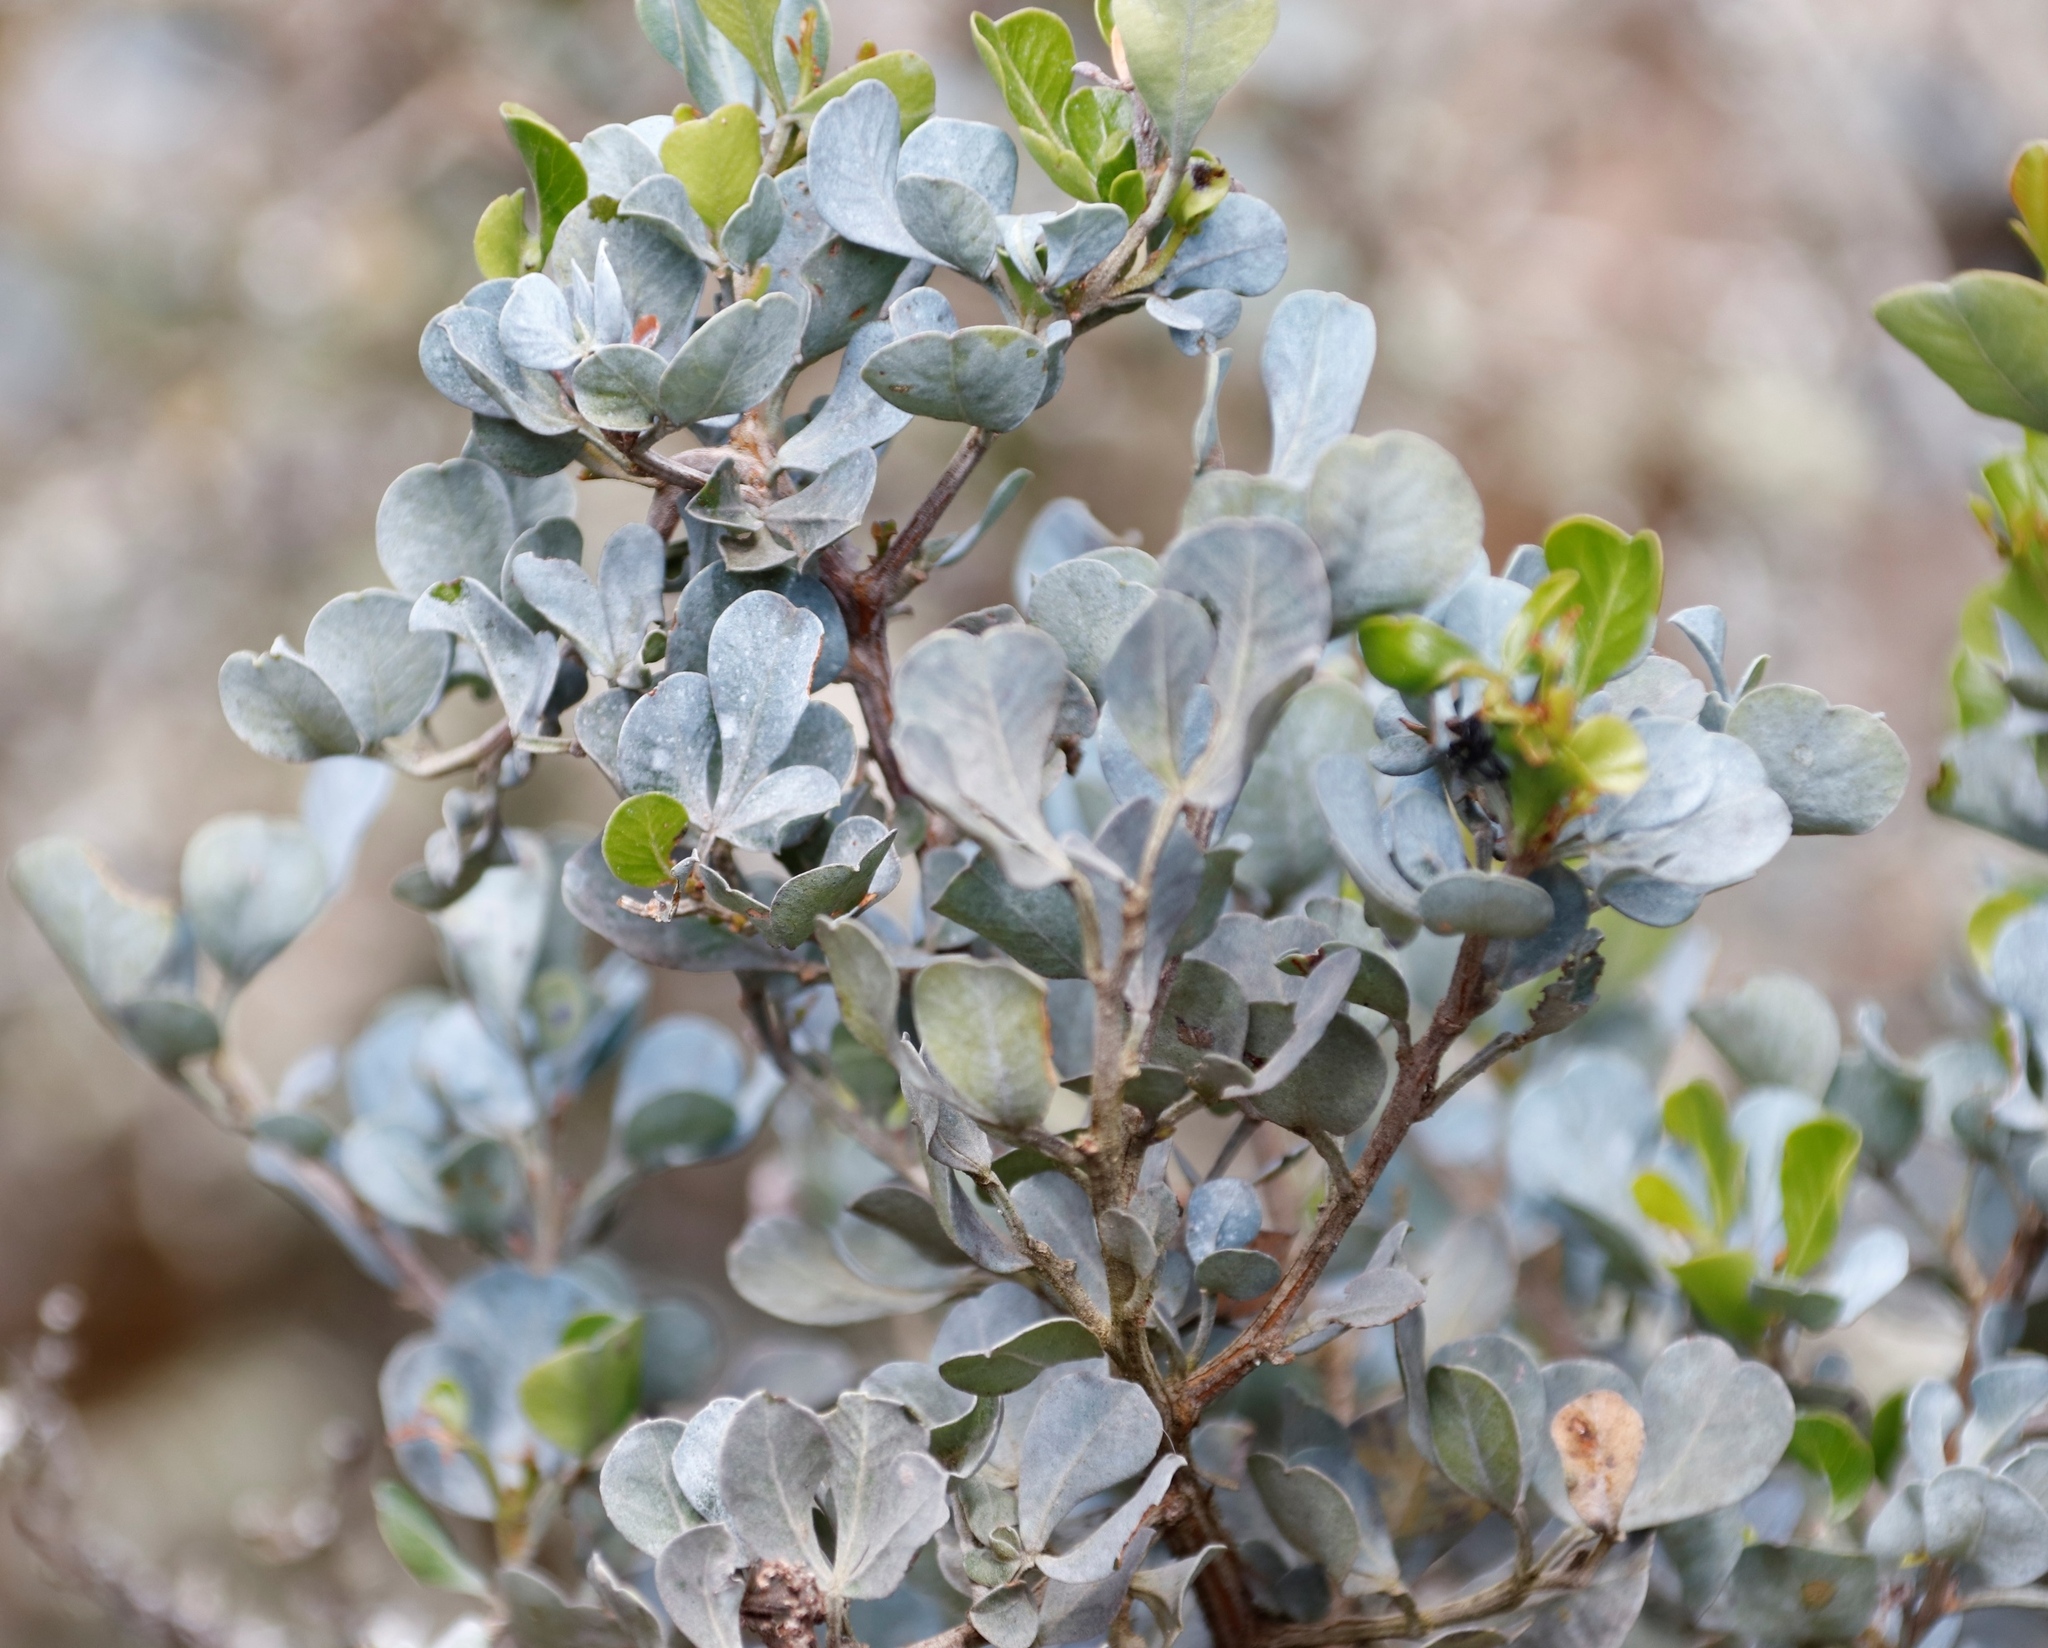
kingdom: Plantae
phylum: Tracheophyta
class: Magnoliopsida
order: Sapindales
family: Anacardiaceae
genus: Searsia
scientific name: Searsia glauca
